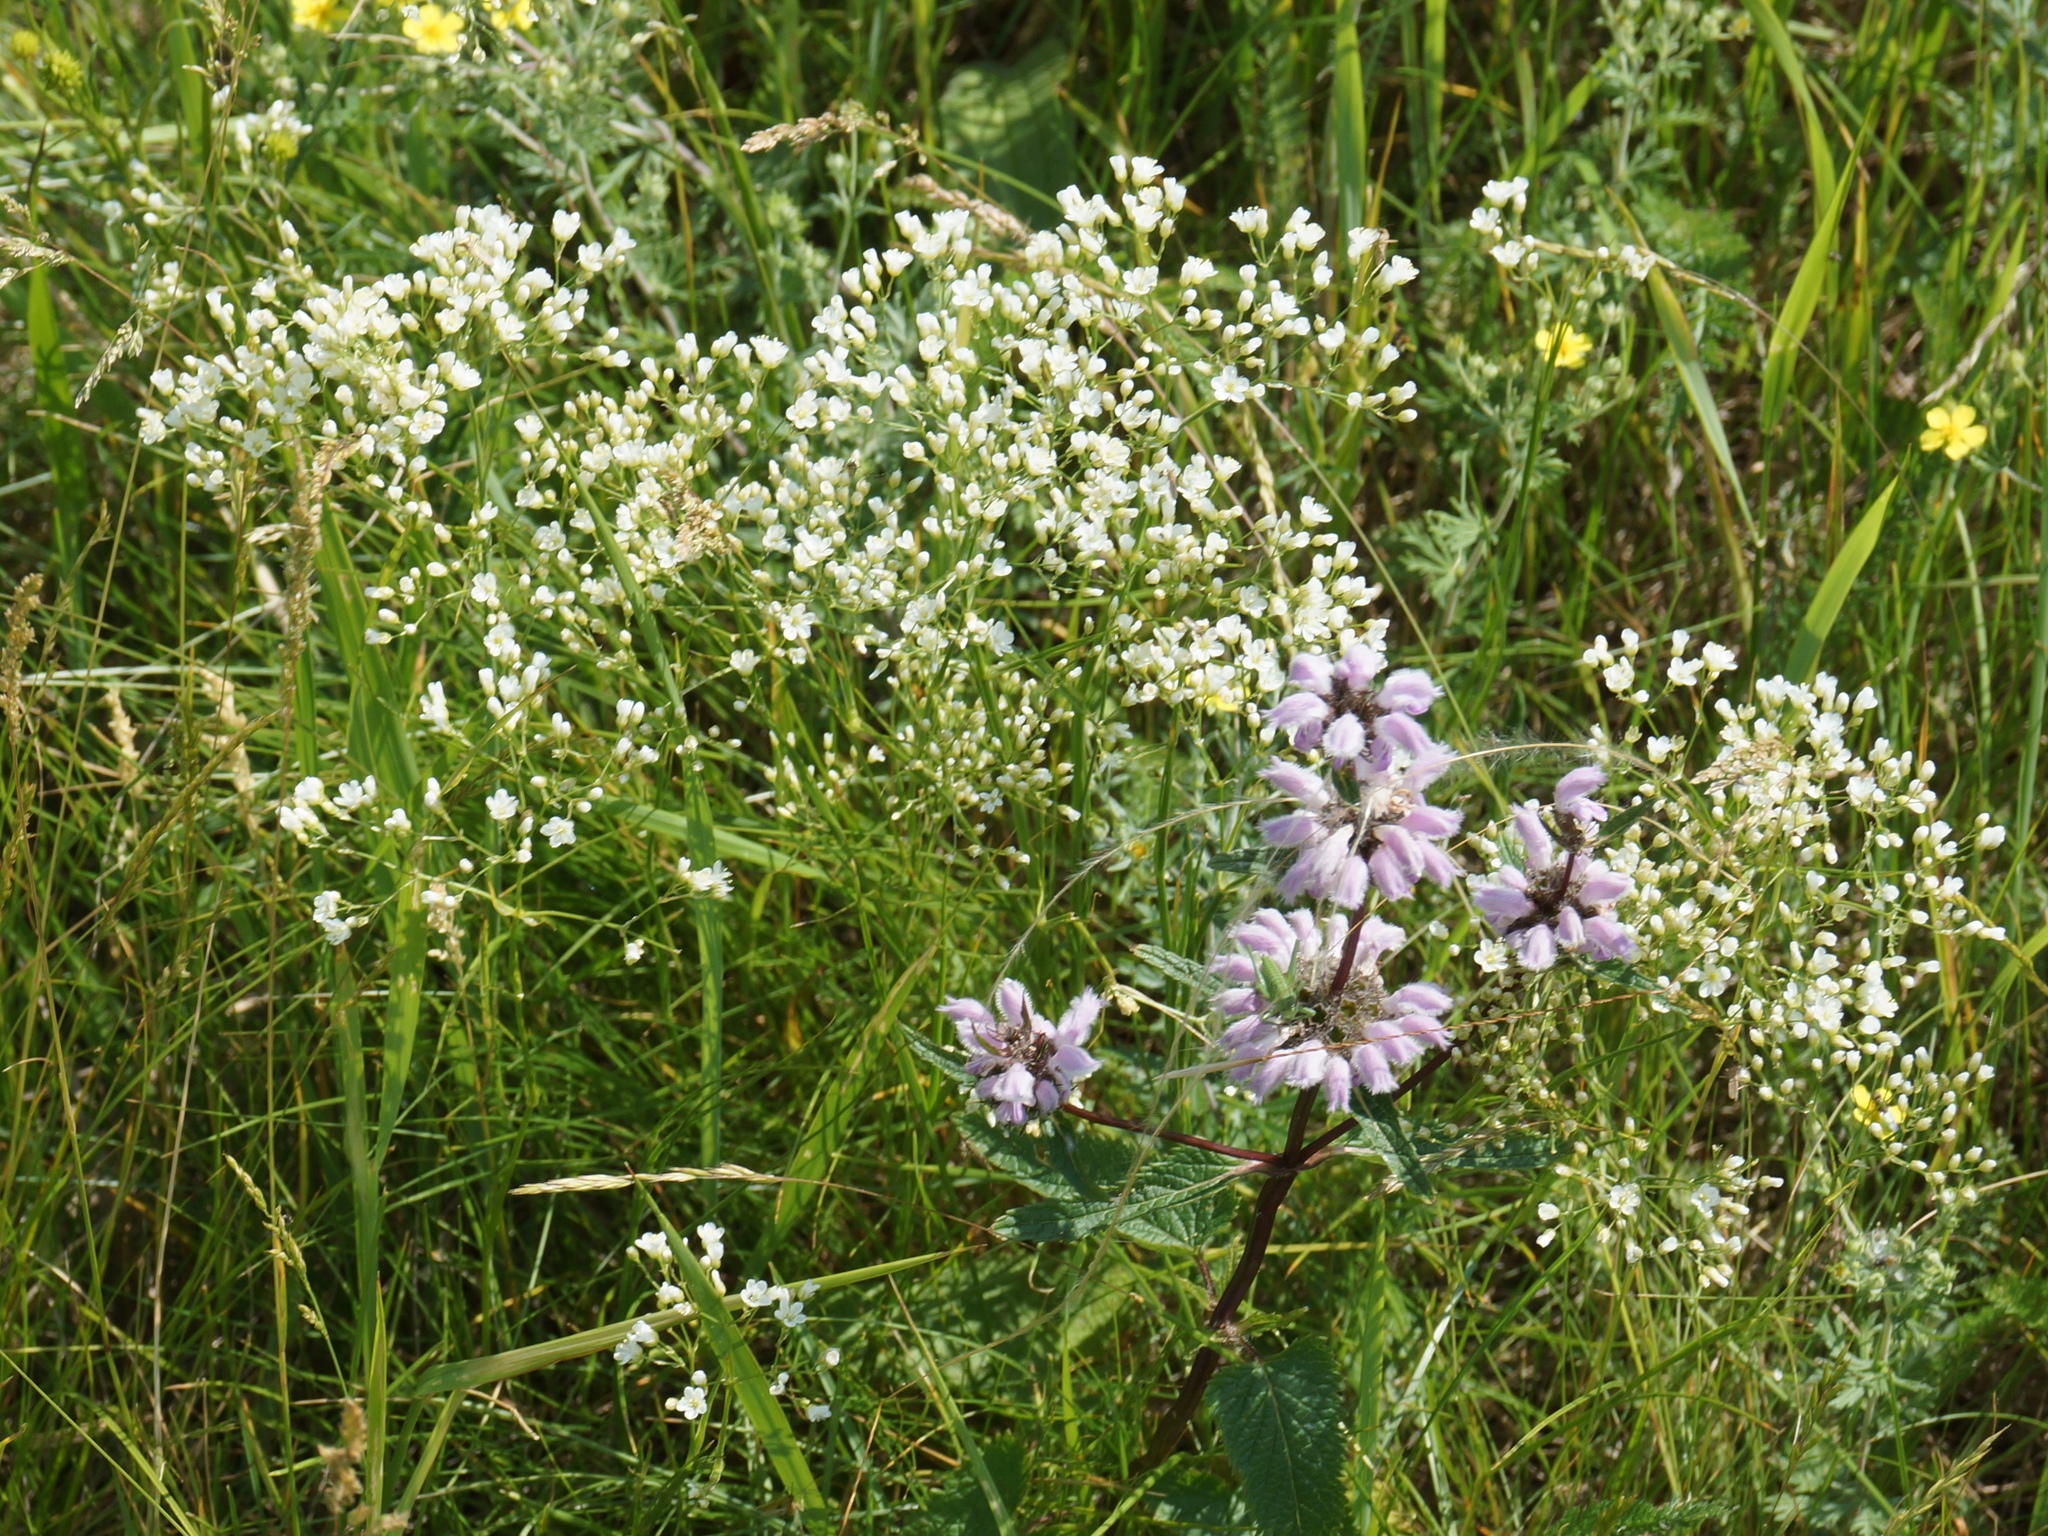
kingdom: Plantae
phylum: Tracheophyta
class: Magnoliopsida
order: Caryophyllales
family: Caryophyllaceae
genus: Eremogone
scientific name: Eremogone longifolia
